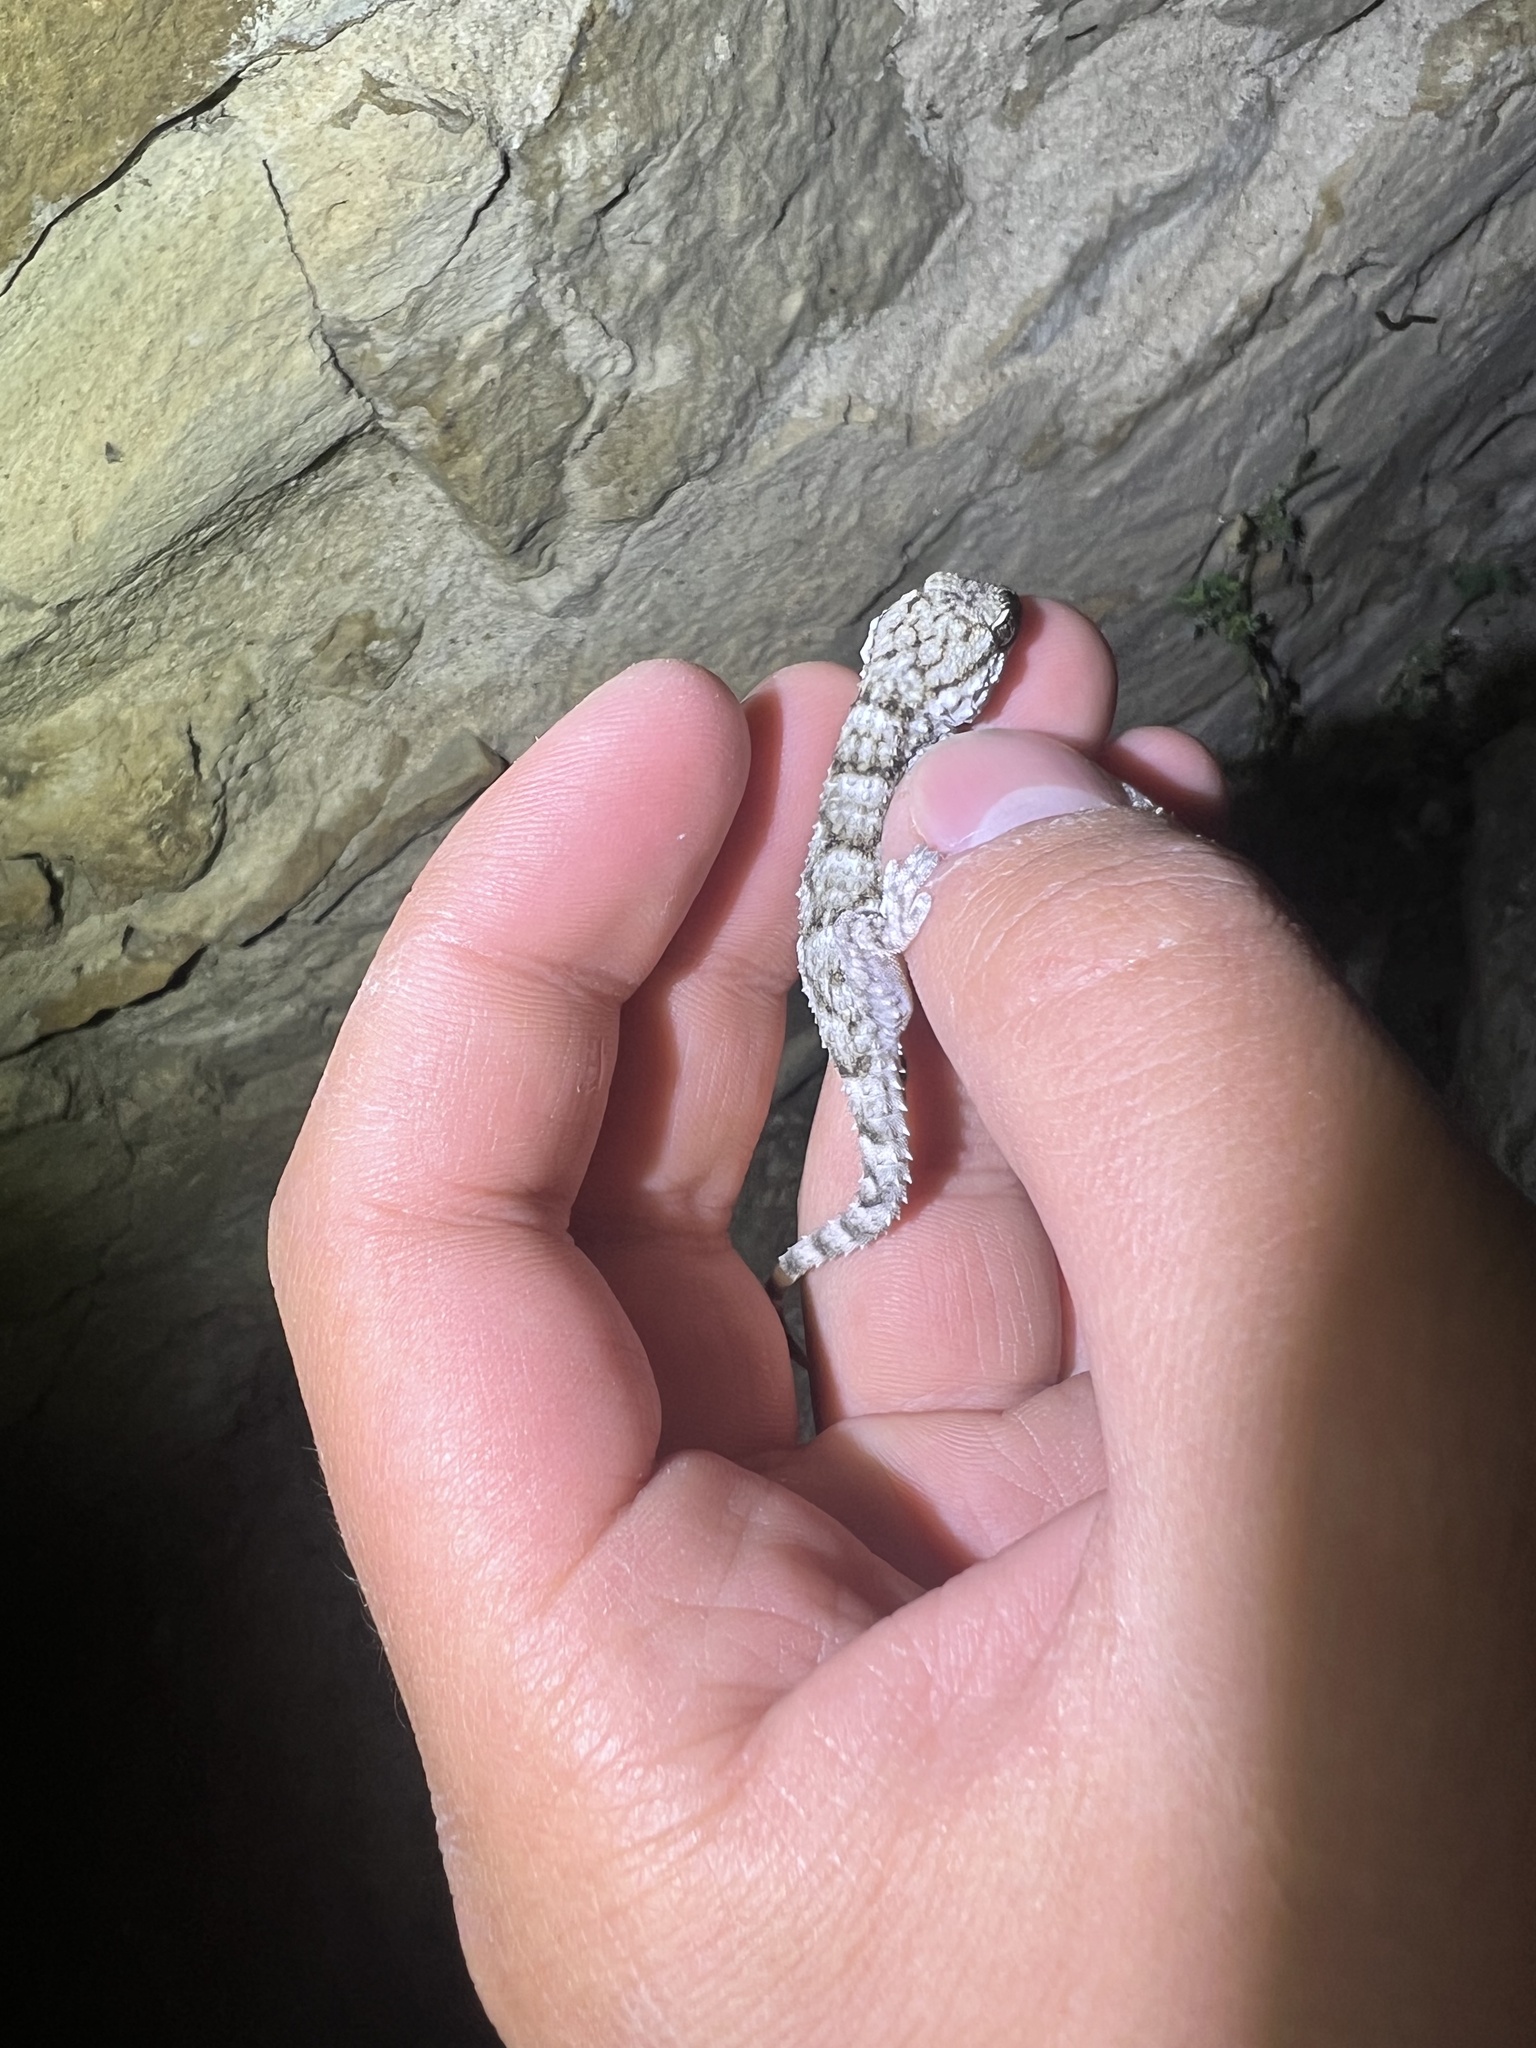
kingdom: Animalia
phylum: Chordata
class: Squamata
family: Phyllodactylidae
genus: Tarentola
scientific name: Tarentola mauritanica
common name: Moorish gecko
